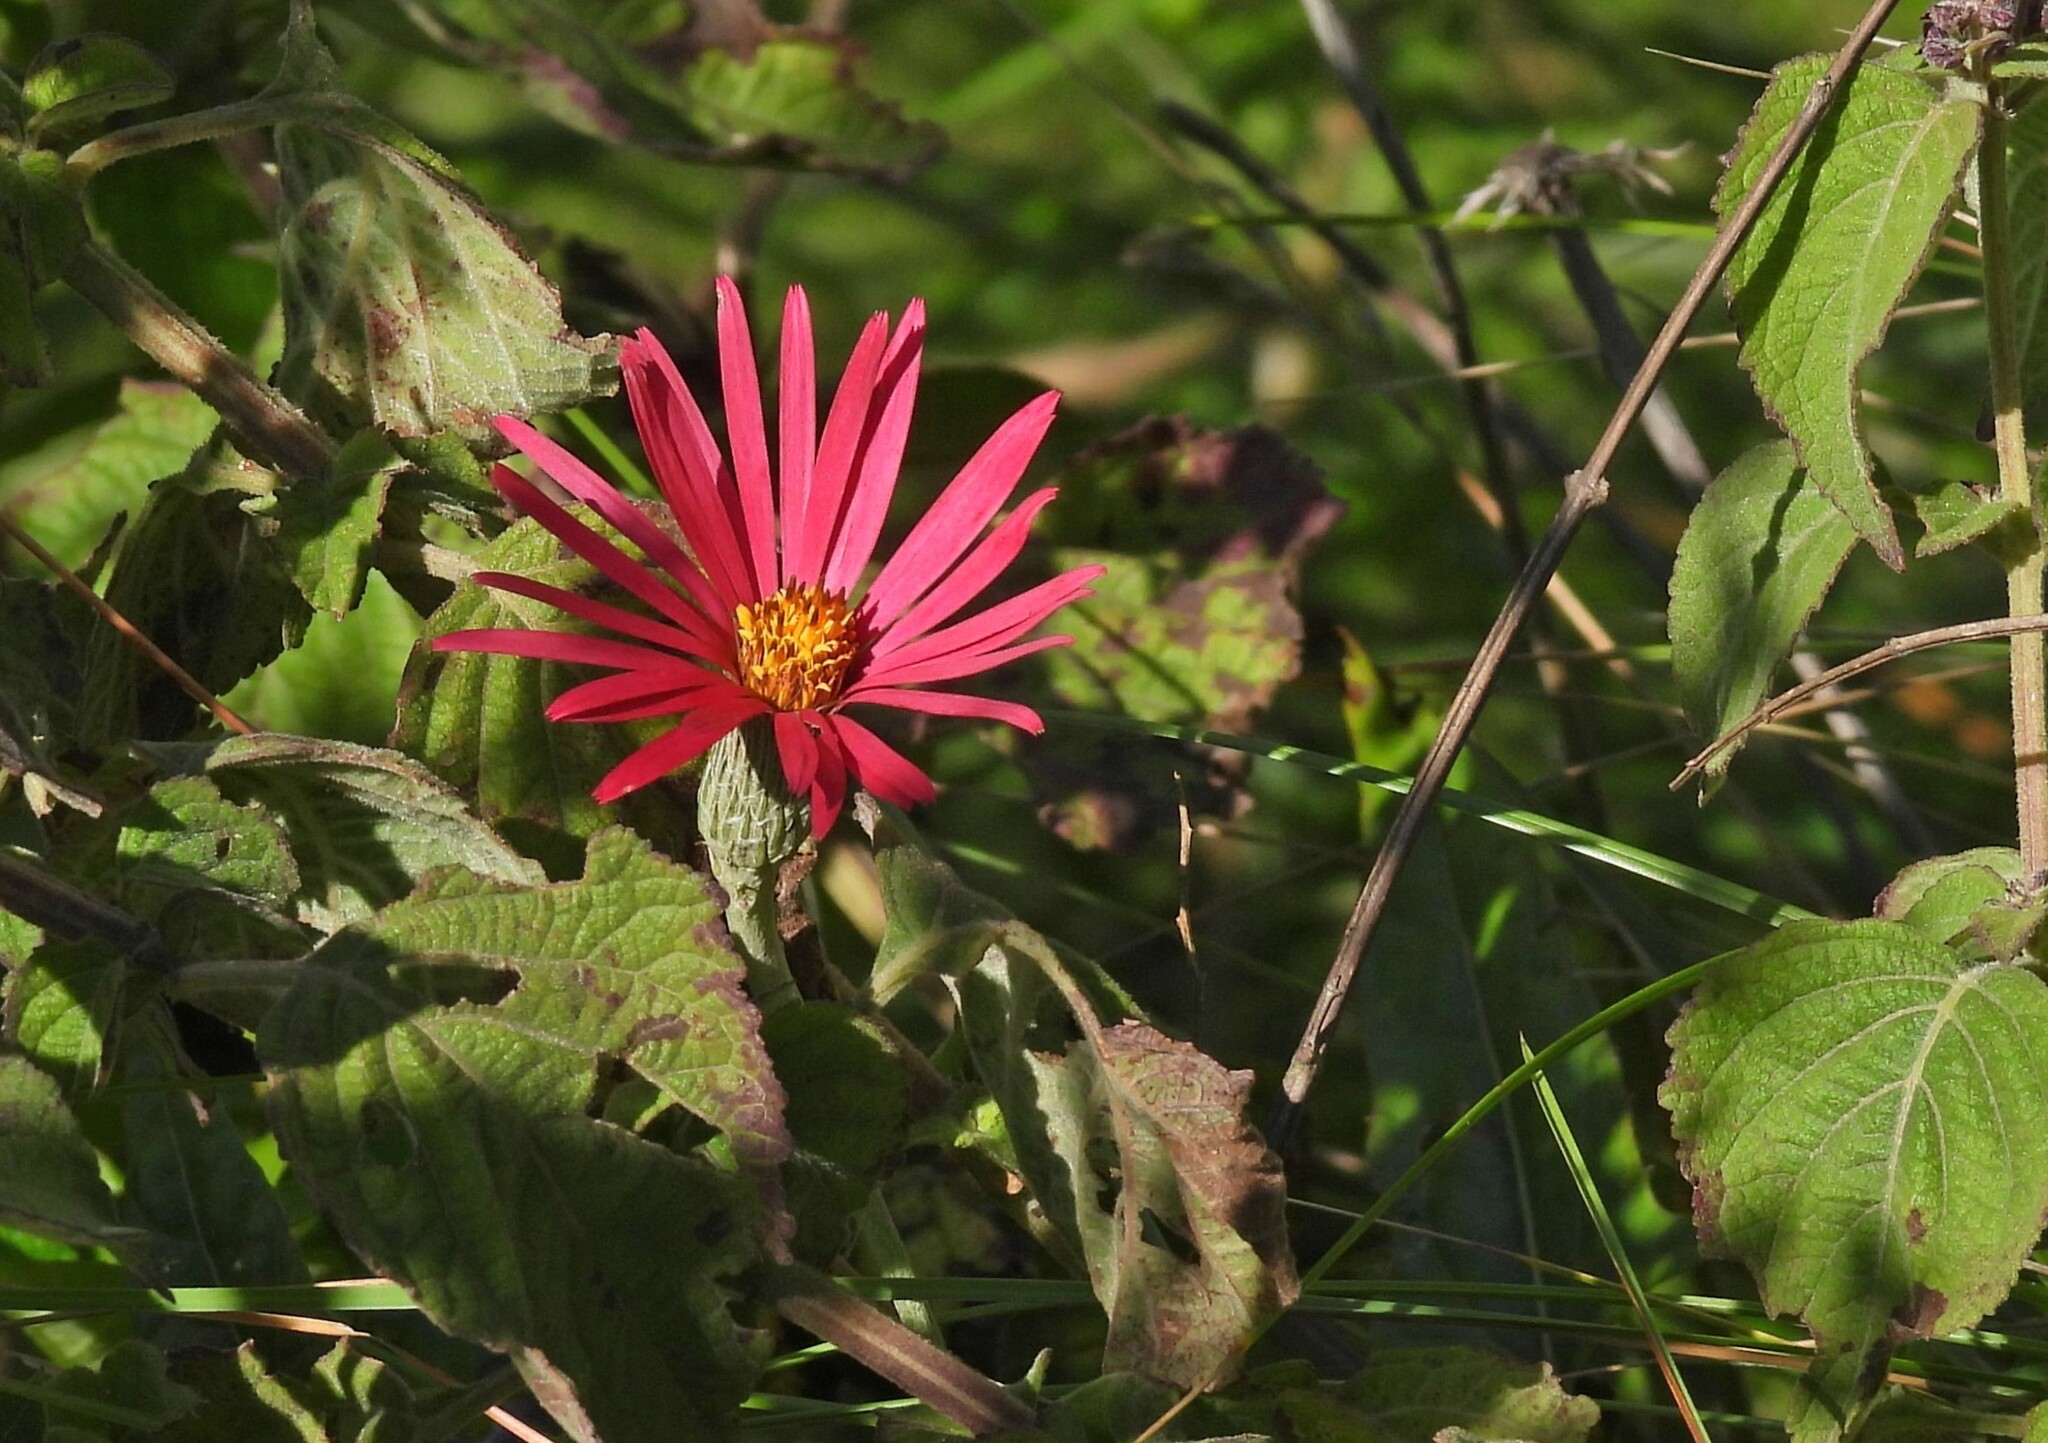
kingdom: Plantae
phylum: Tracheophyta
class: Magnoliopsida
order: Asterales
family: Asteraceae
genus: Onoseris
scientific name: Onoseris alata
